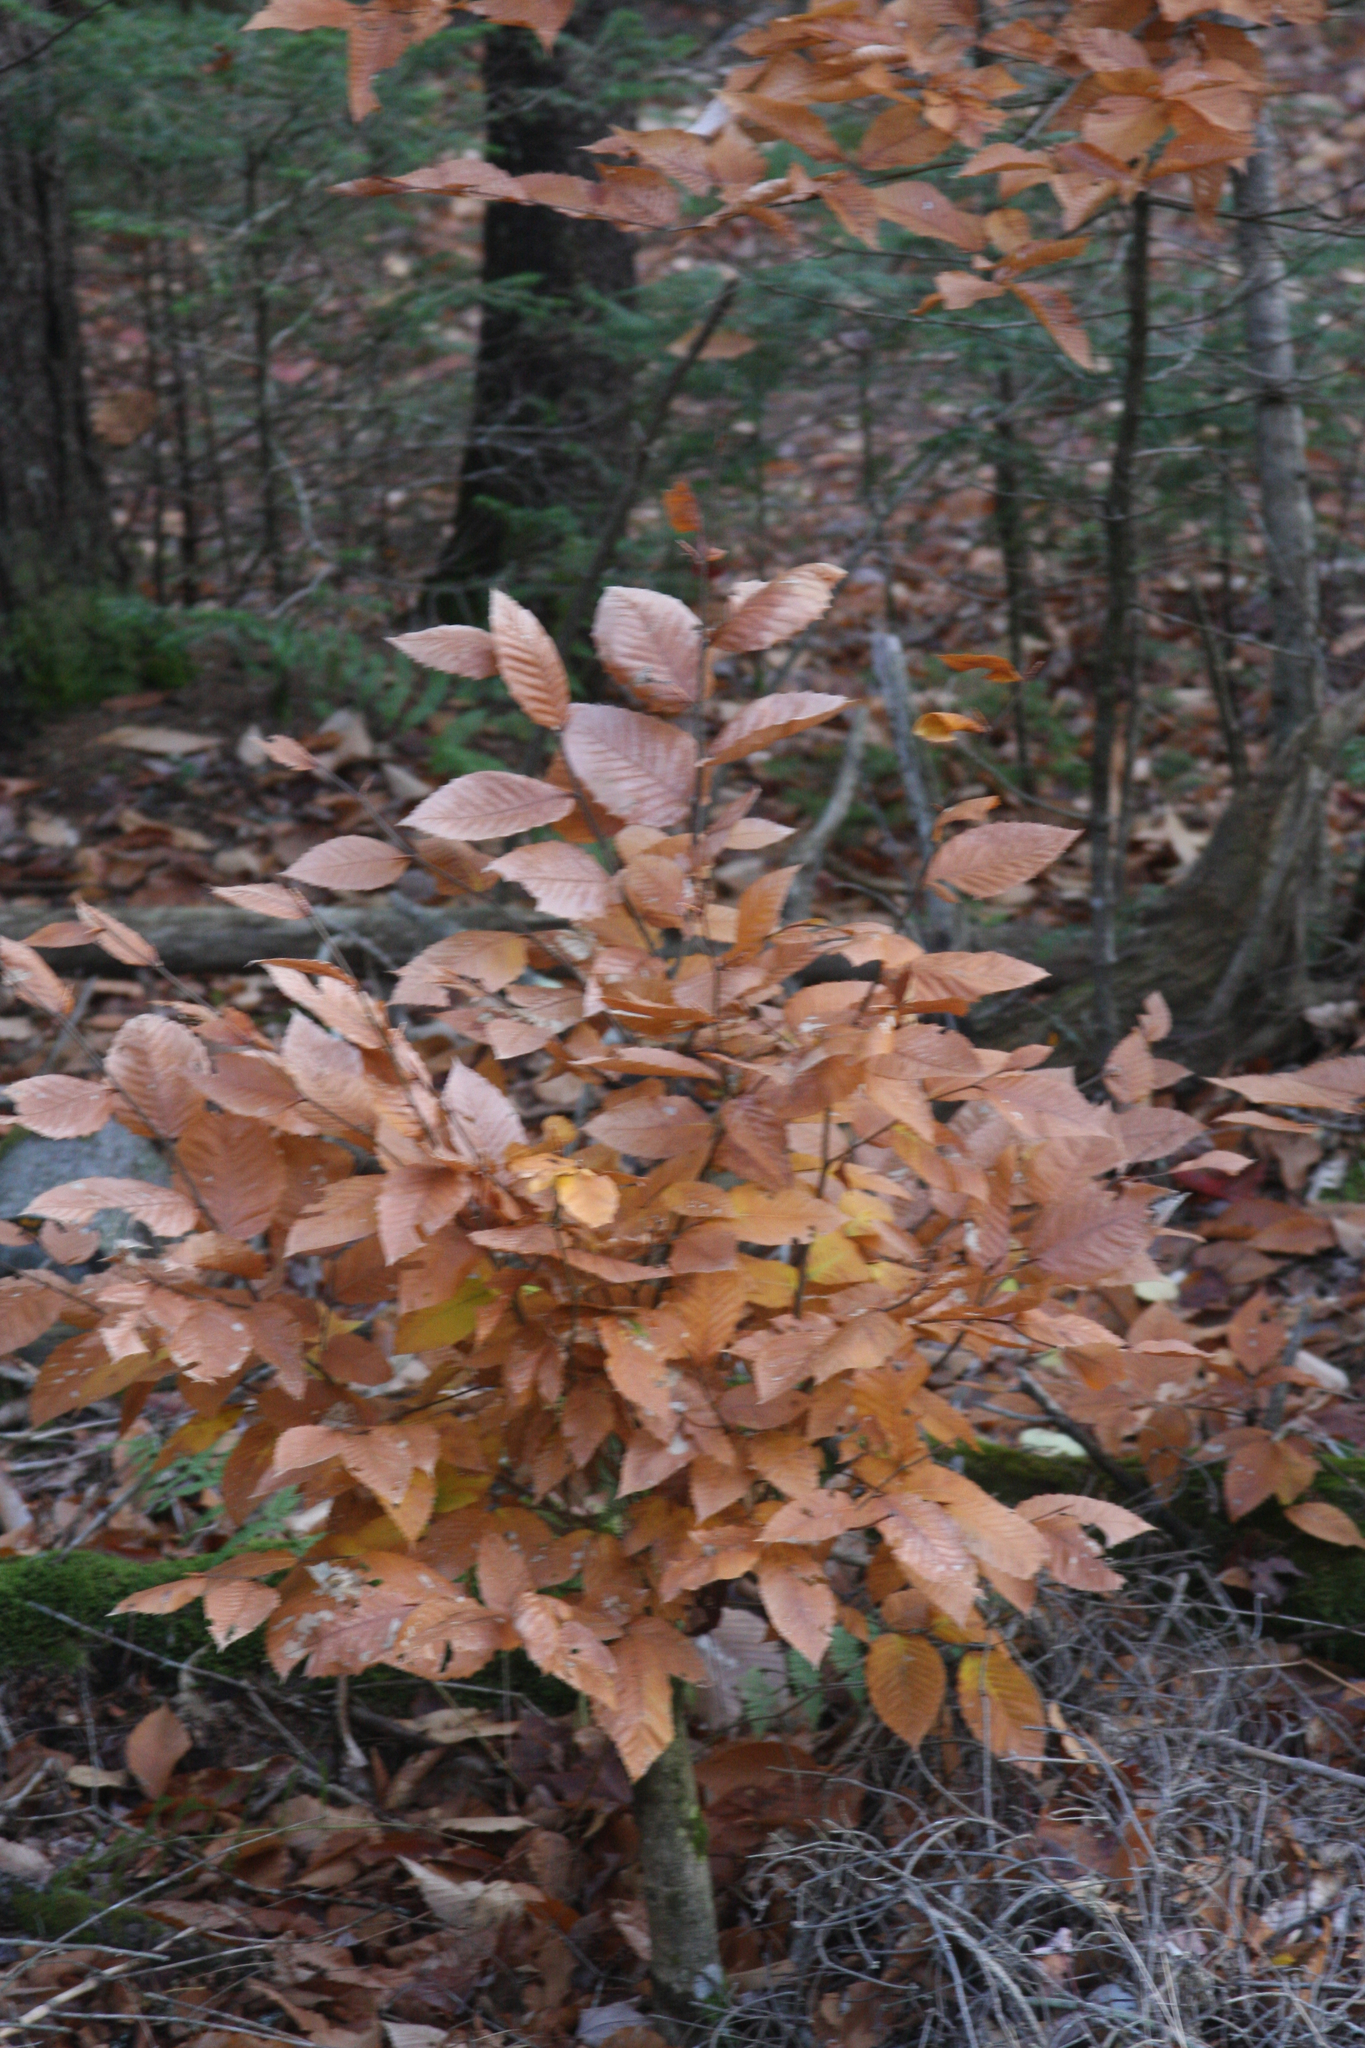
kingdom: Plantae
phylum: Tracheophyta
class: Magnoliopsida
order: Fagales
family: Fagaceae
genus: Fagus
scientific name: Fagus grandifolia
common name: American beech
